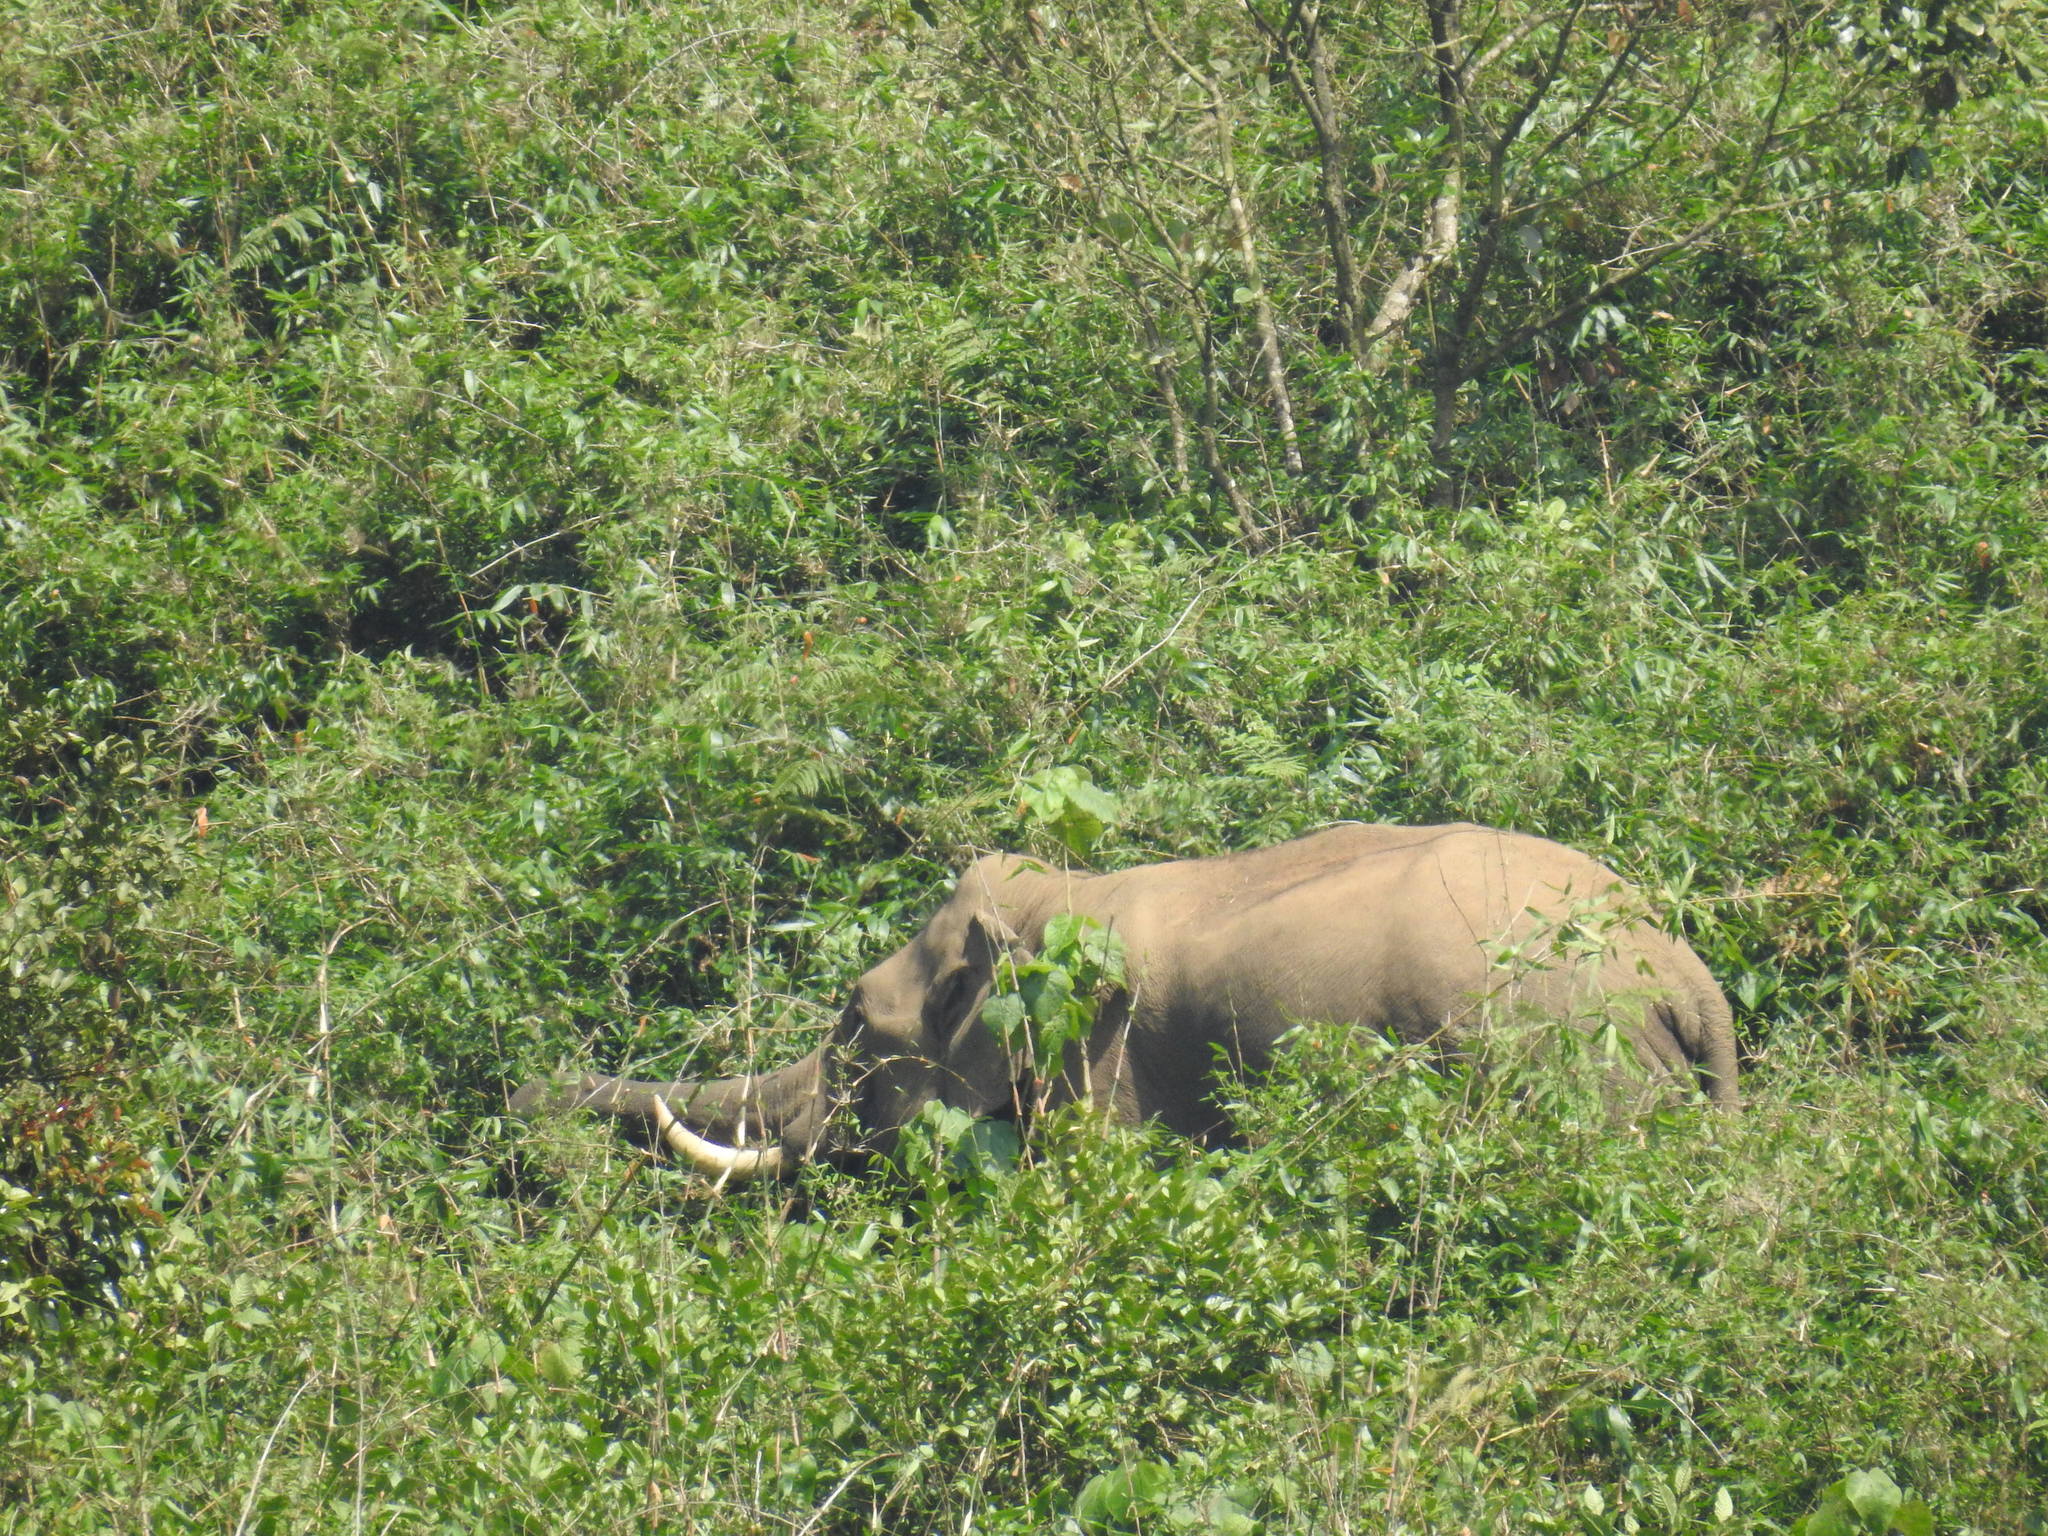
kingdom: Animalia
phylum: Chordata
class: Mammalia
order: Proboscidea
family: Elephantidae
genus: Elephas
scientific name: Elephas maximus
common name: Asian elephant
